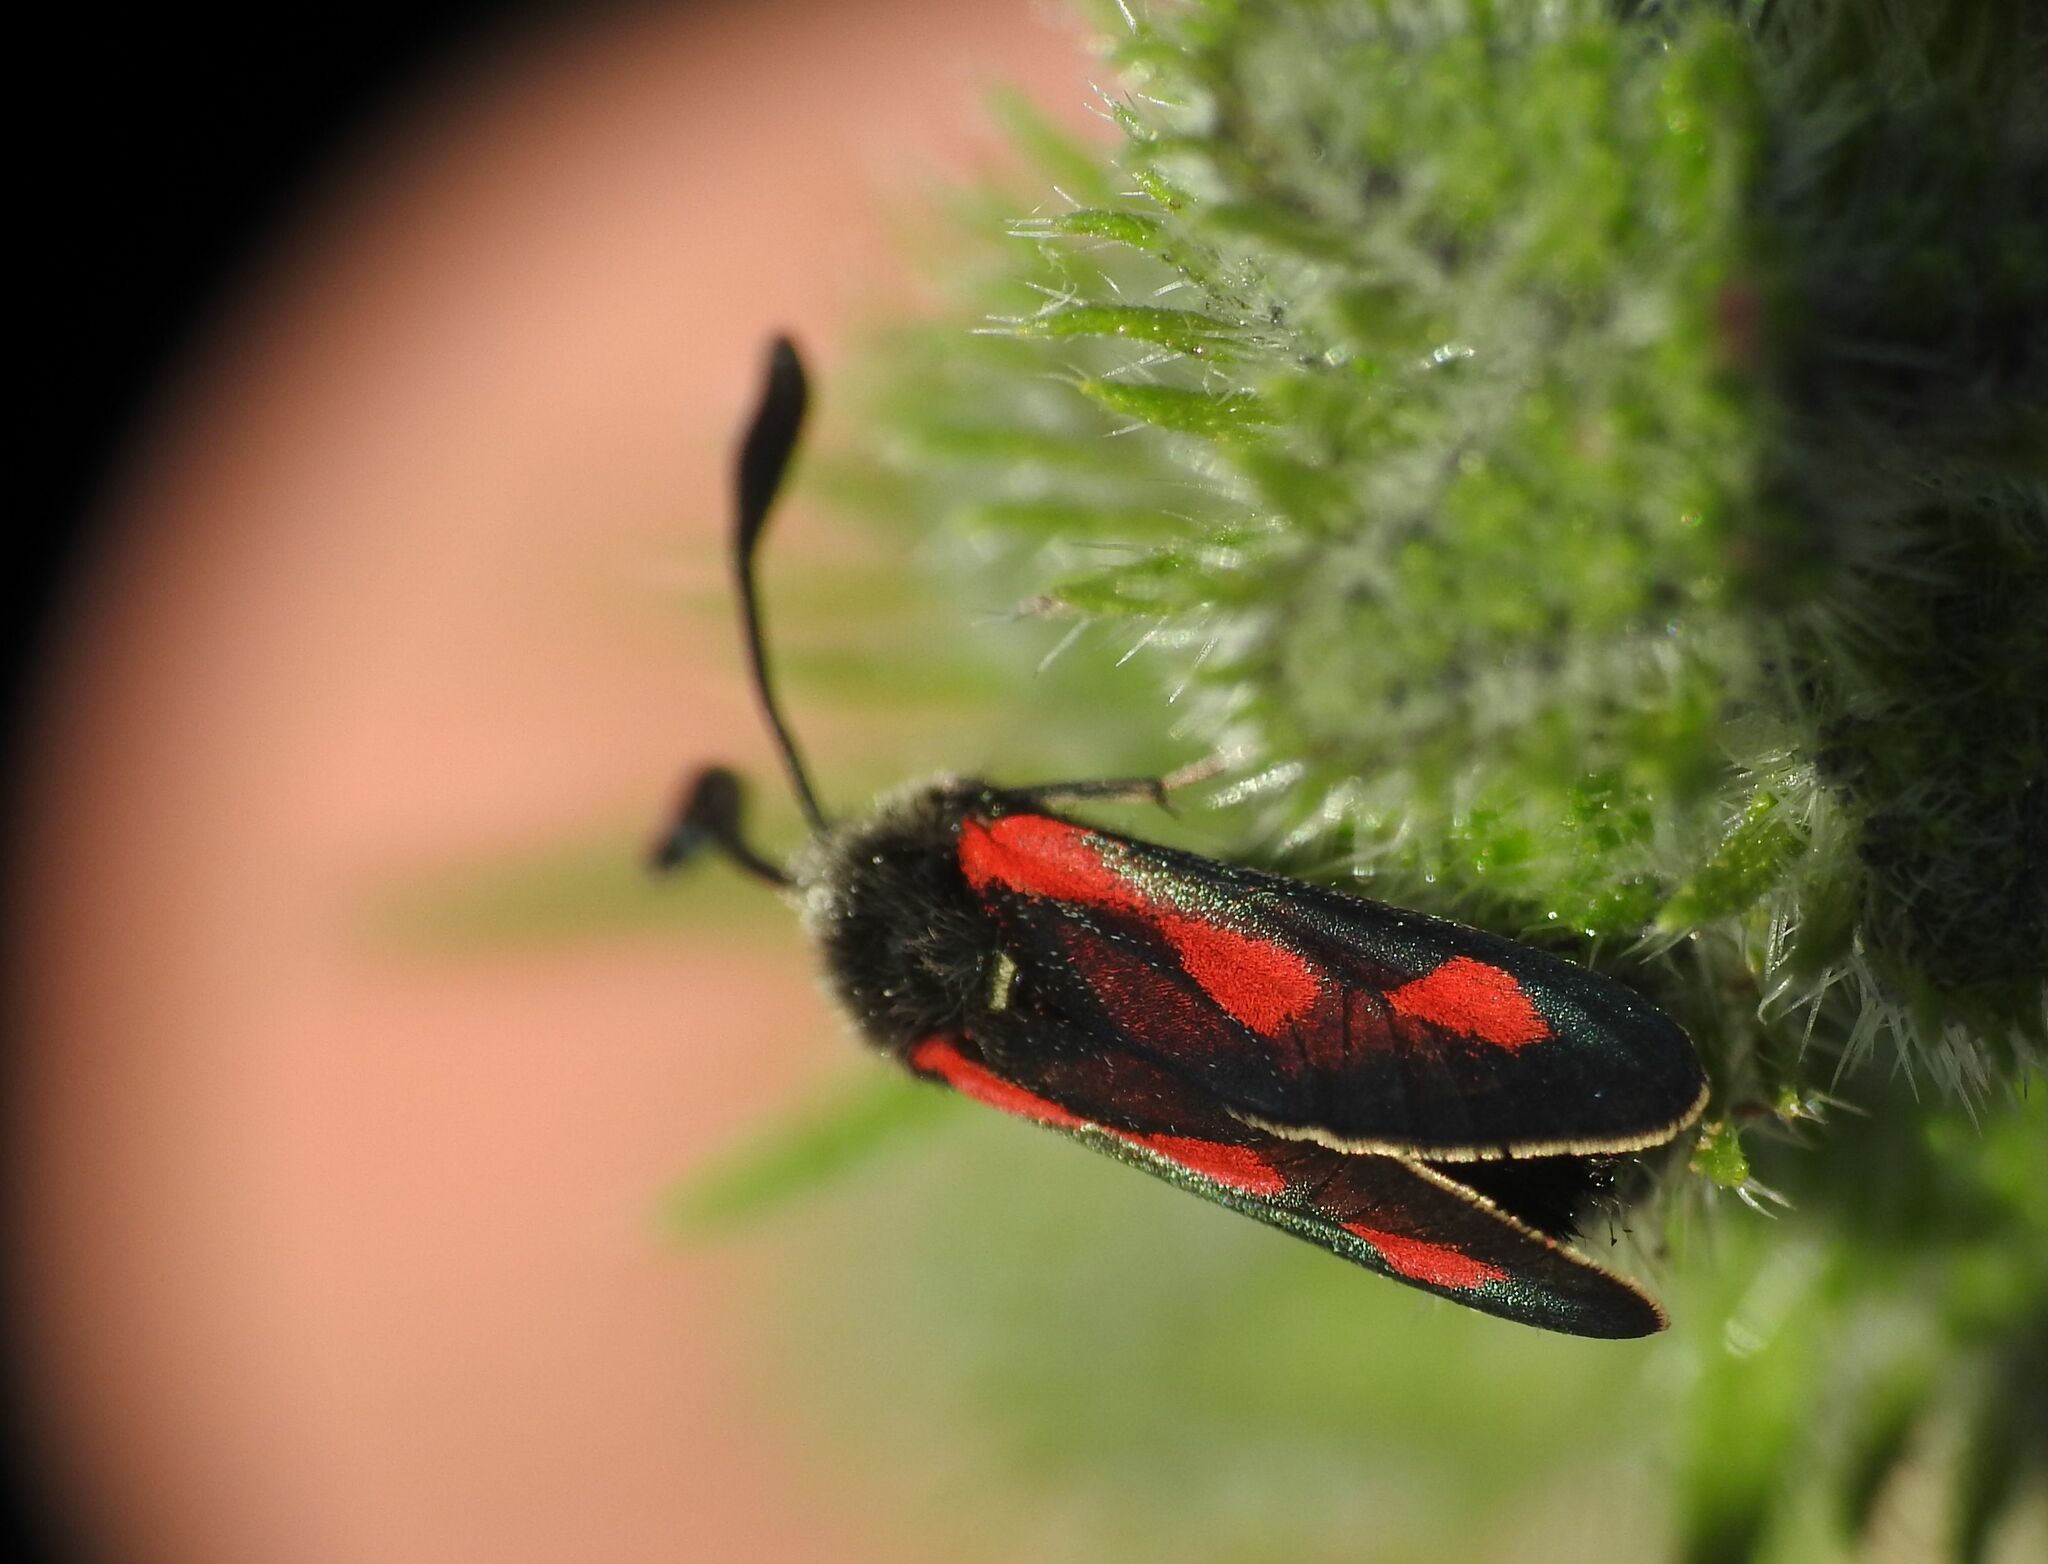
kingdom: Animalia
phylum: Arthropoda
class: Insecta
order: Lepidoptera
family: Zygaenidae
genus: Zygaena
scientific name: Zygaena sarpedon
